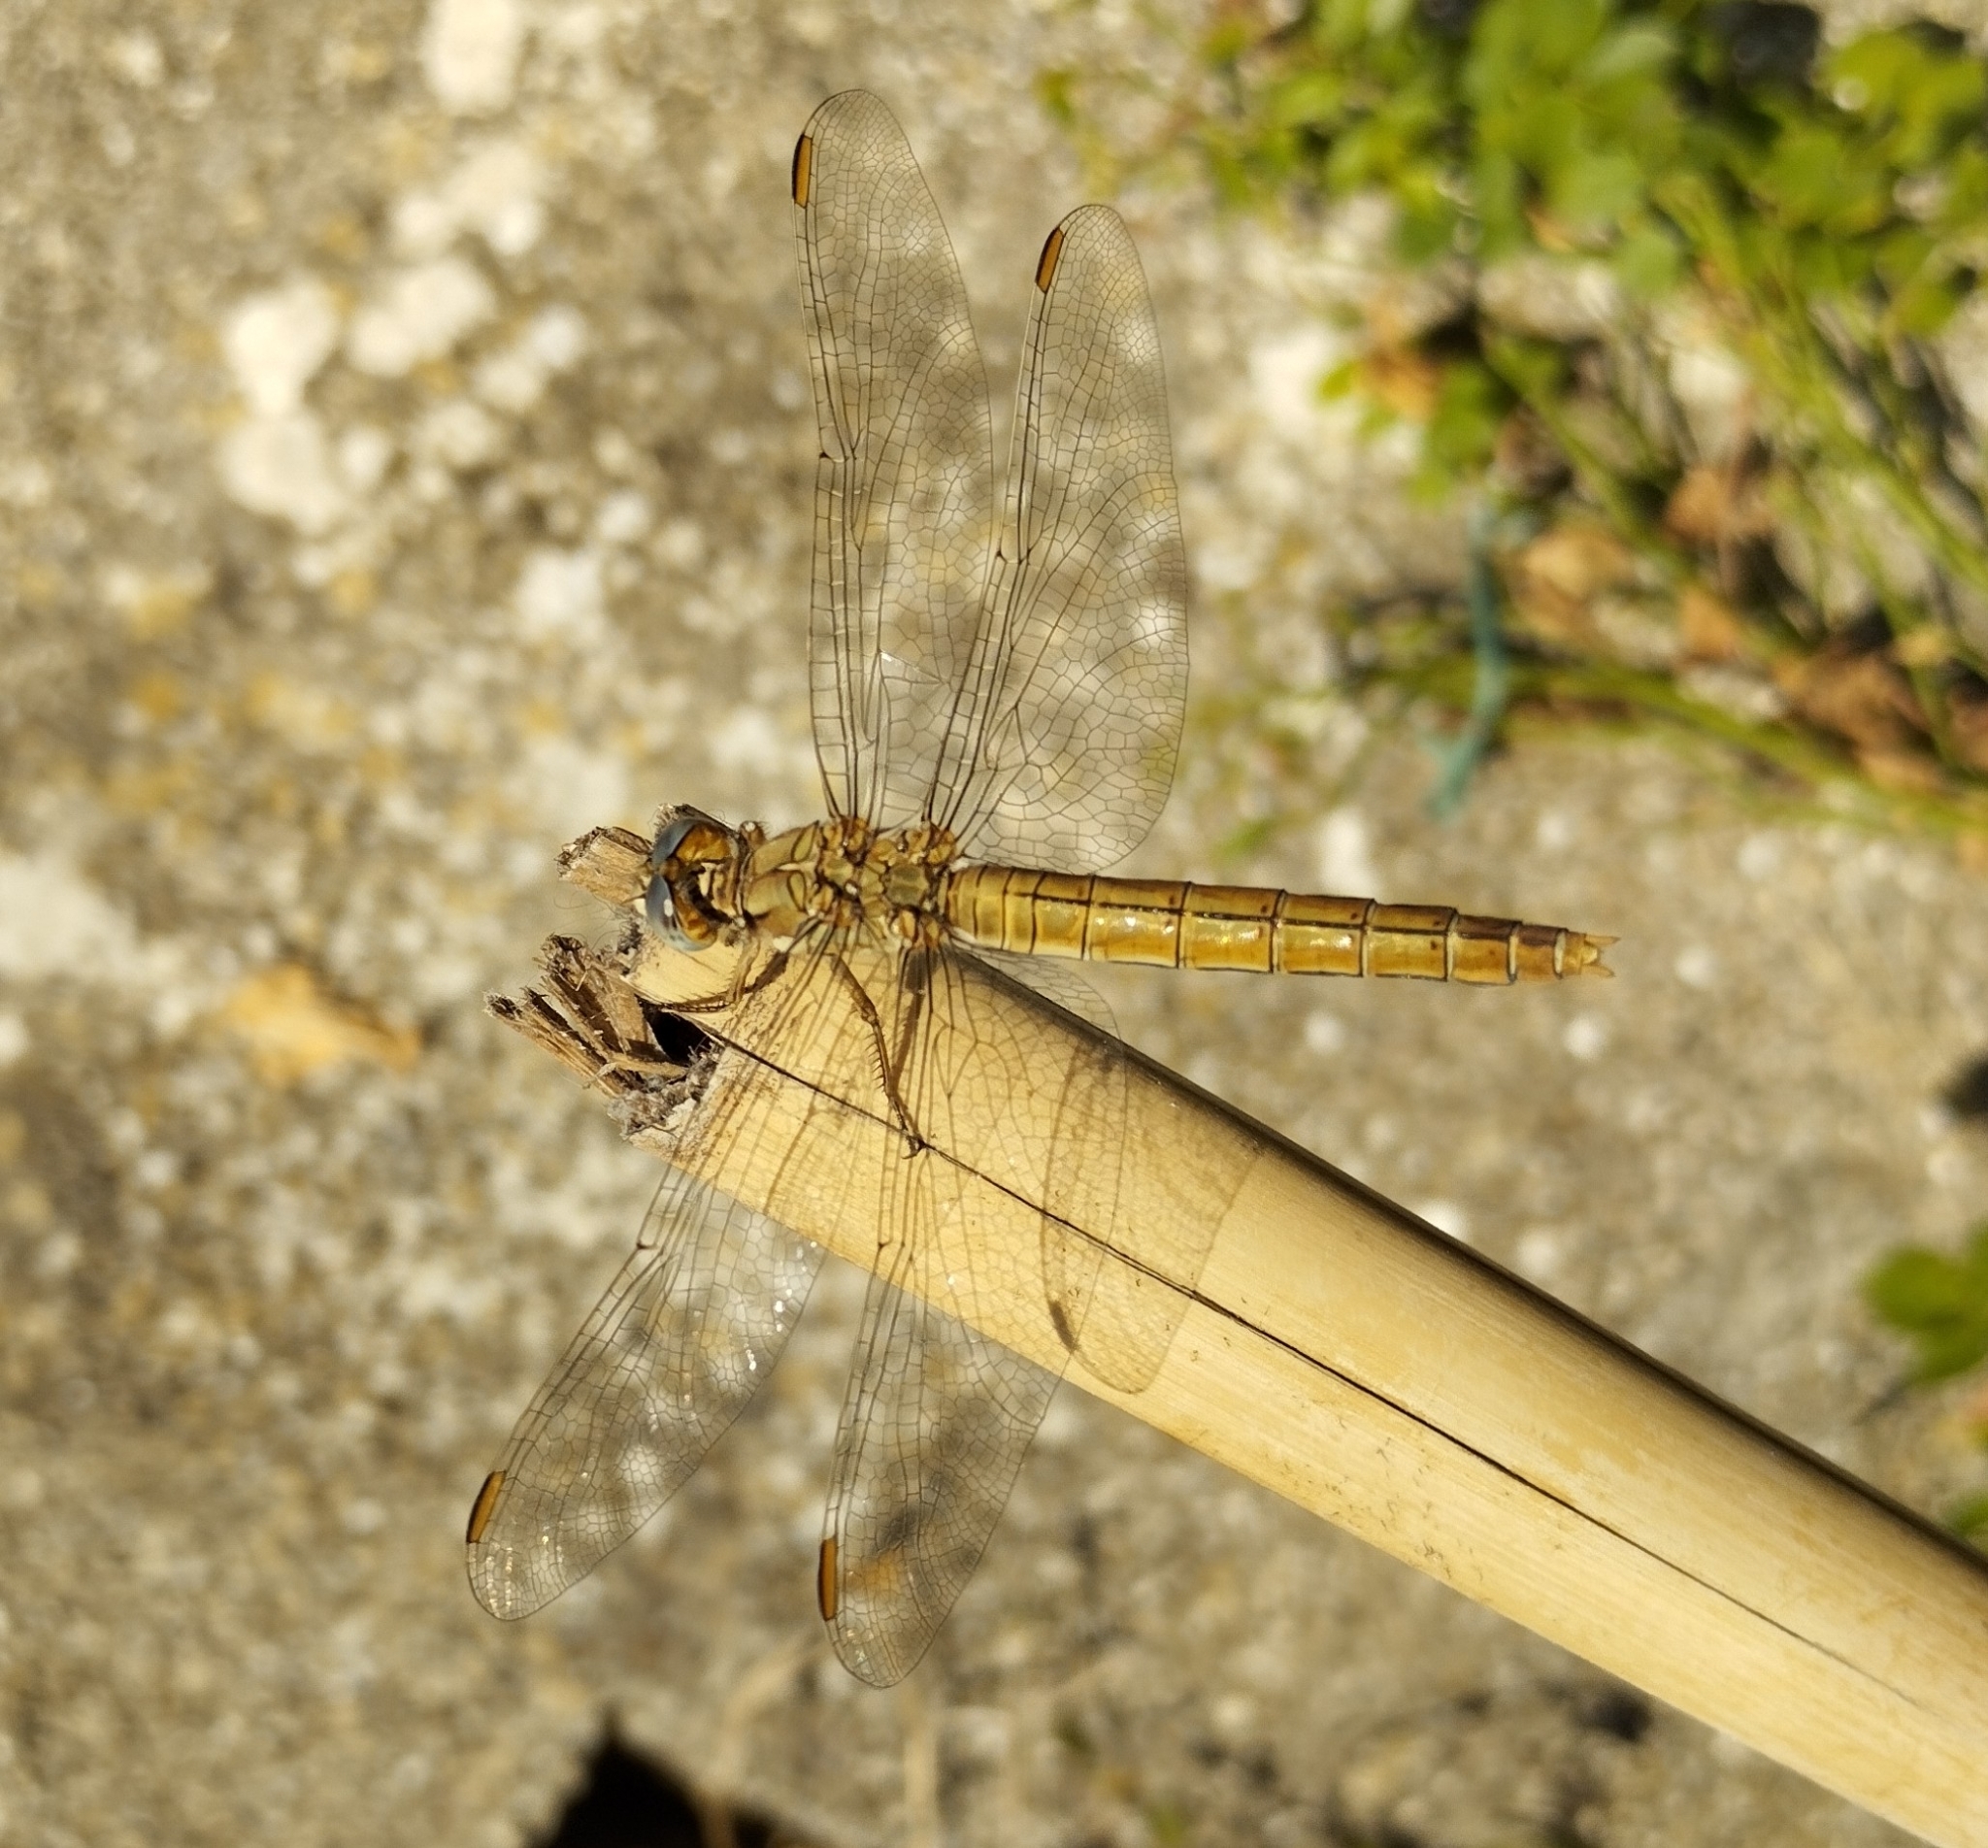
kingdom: Animalia
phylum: Arthropoda
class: Insecta
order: Odonata
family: Libellulidae
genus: Orthetrum
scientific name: Orthetrum brunneum
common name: Southern skimmer
